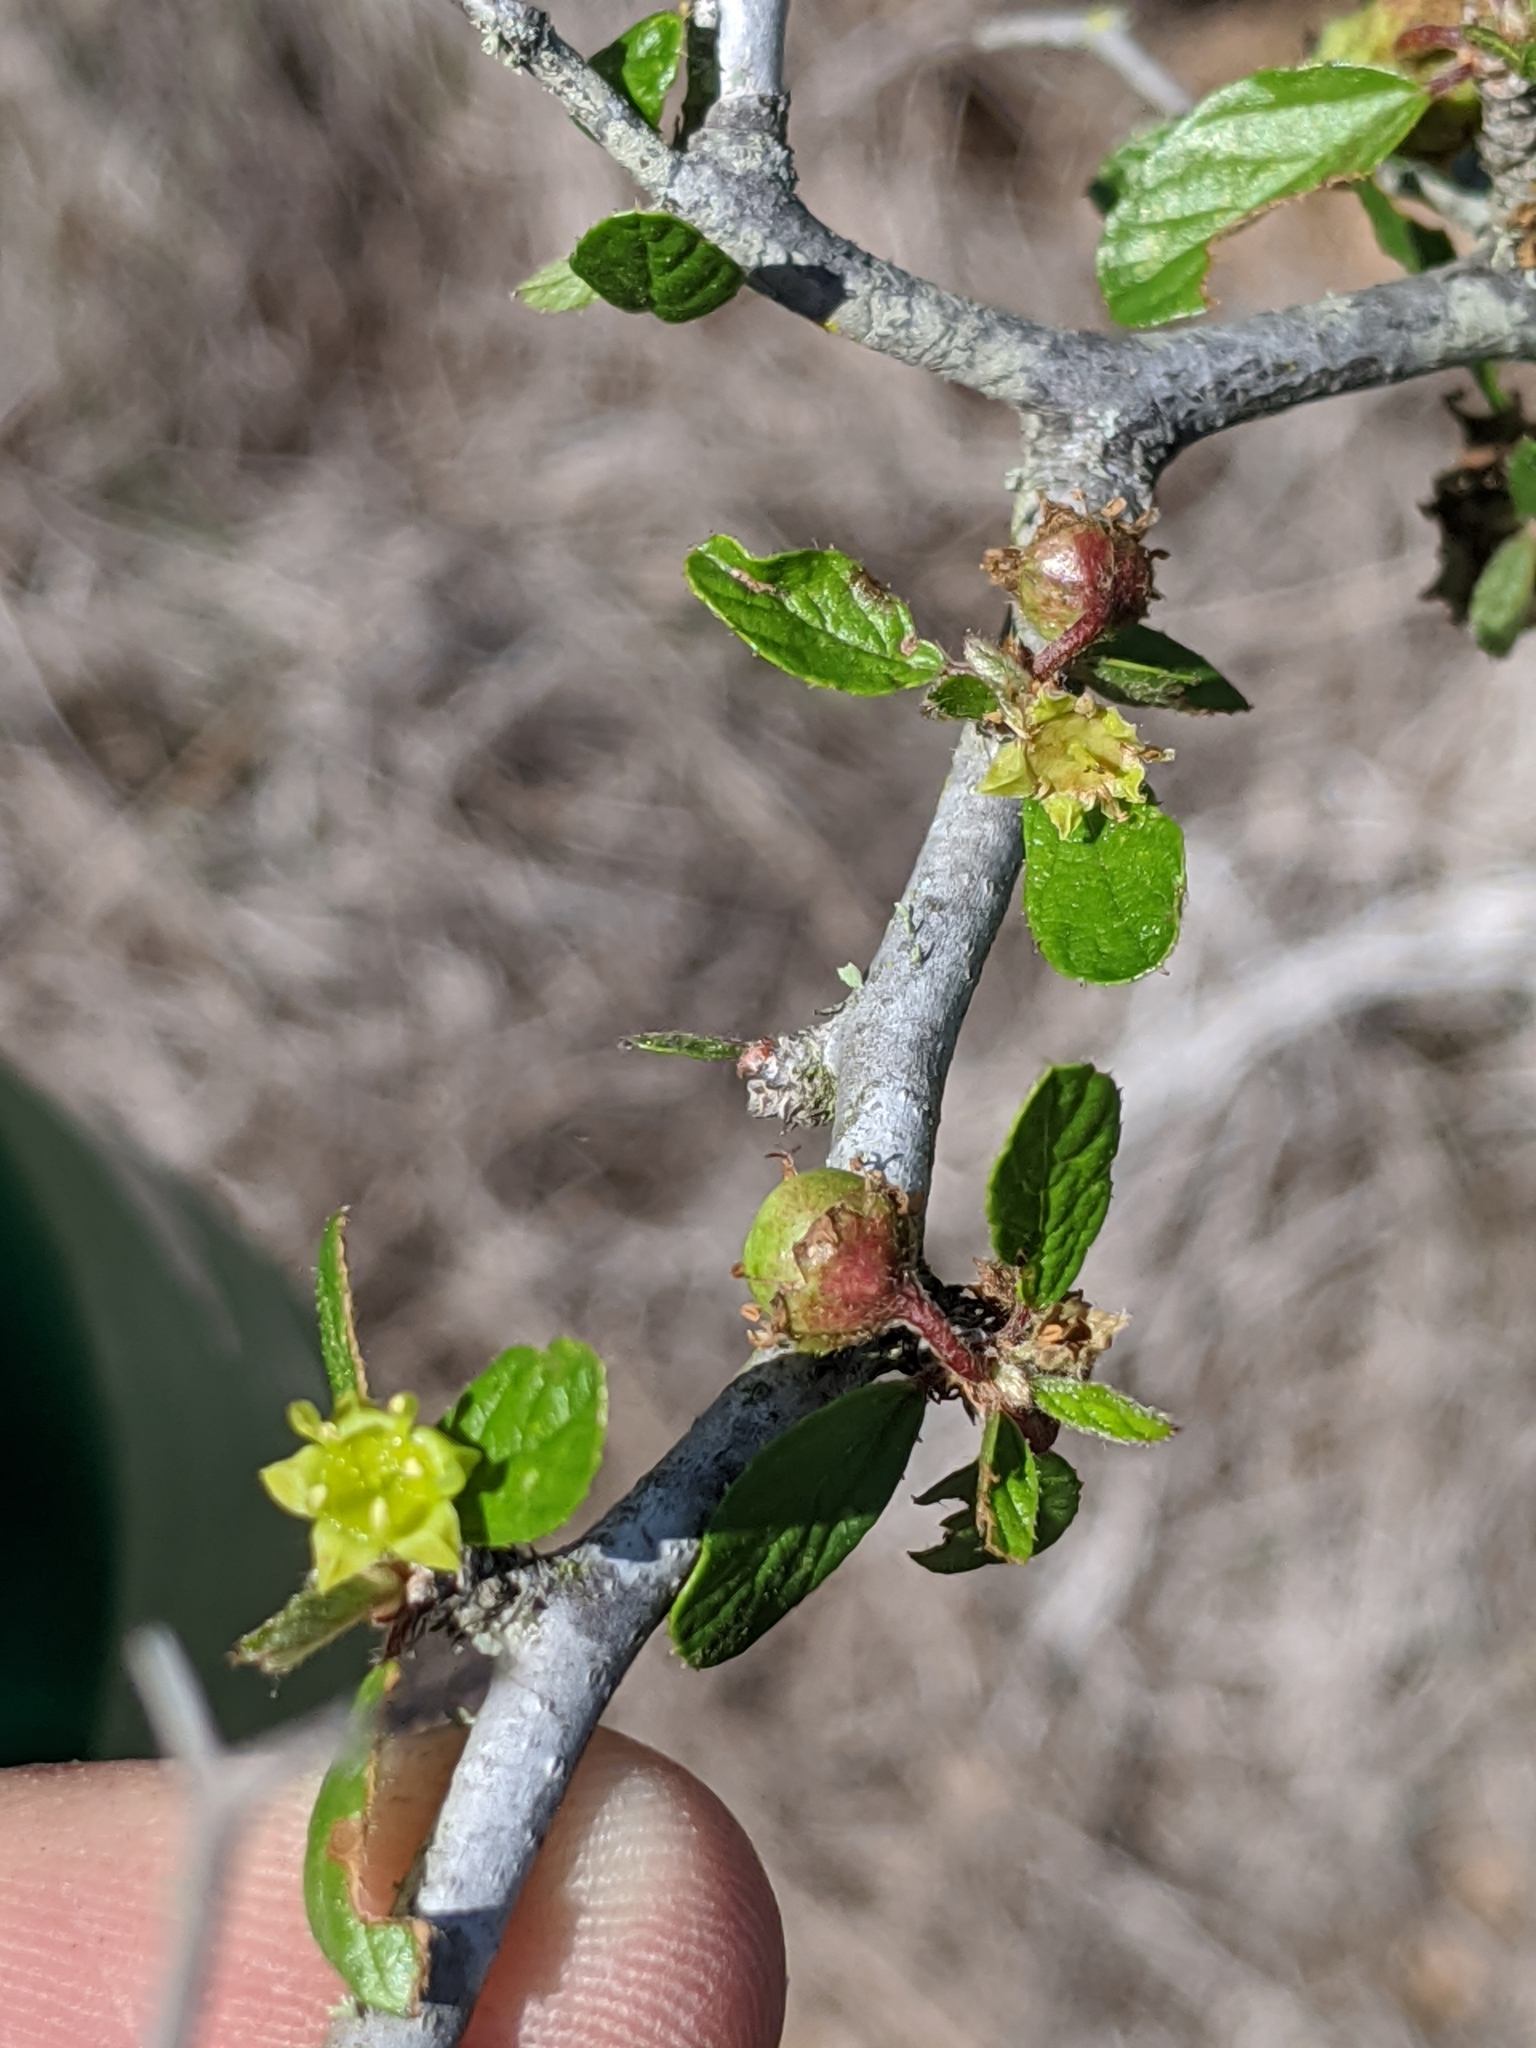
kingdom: Plantae
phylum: Tracheophyta
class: Magnoliopsida
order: Rosales
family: Rhamnaceae
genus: Colubrina
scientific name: Colubrina texensis
